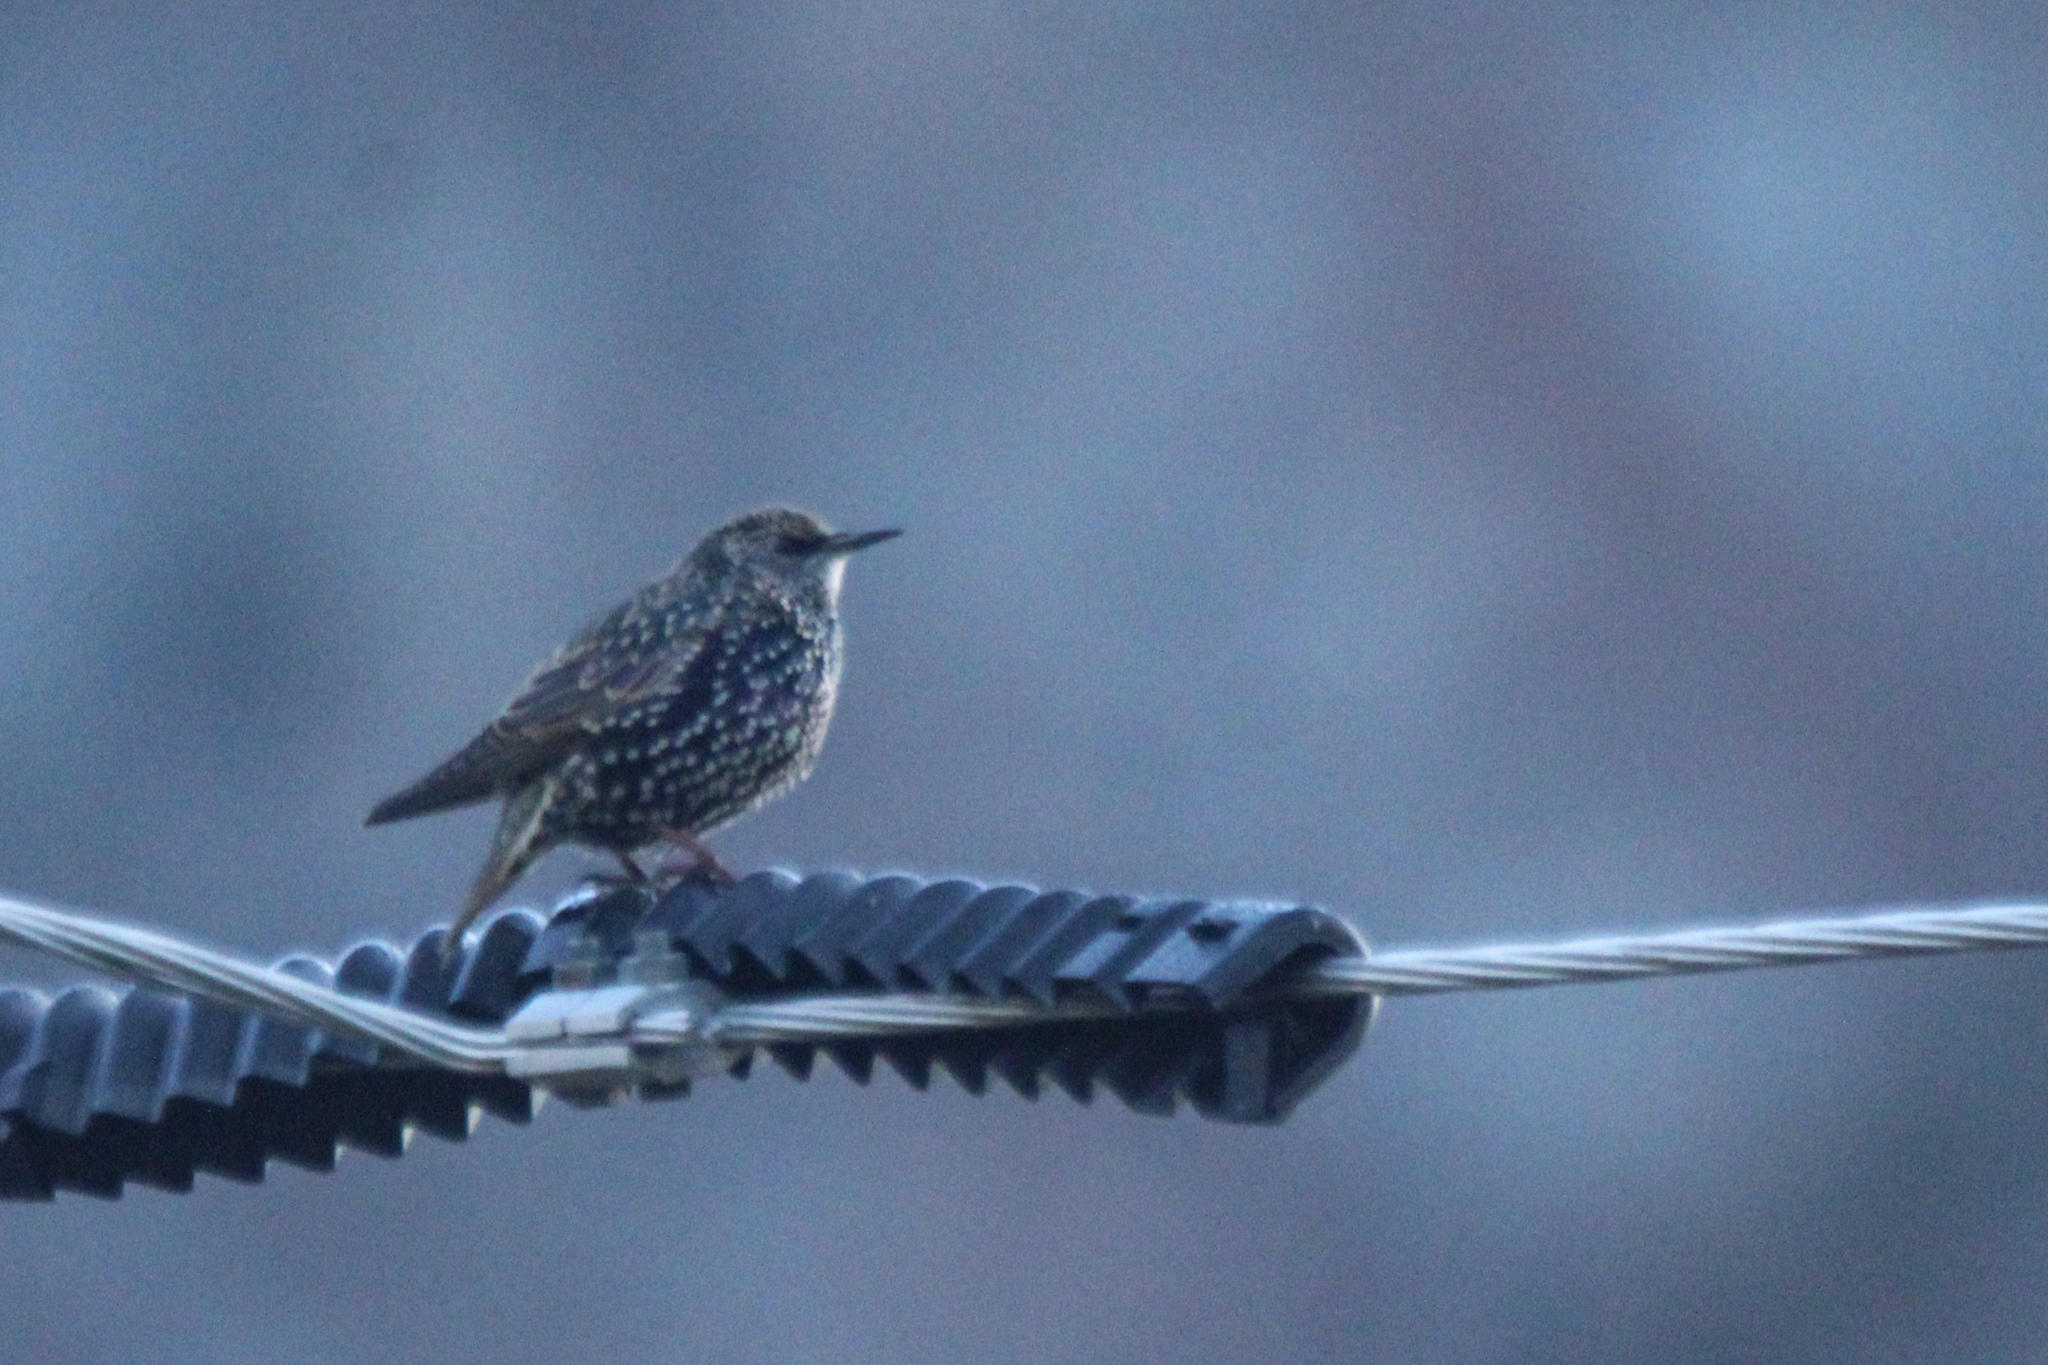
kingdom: Animalia
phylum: Chordata
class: Aves
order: Passeriformes
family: Sturnidae
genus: Sturnus
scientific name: Sturnus vulgaris
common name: Common starling
